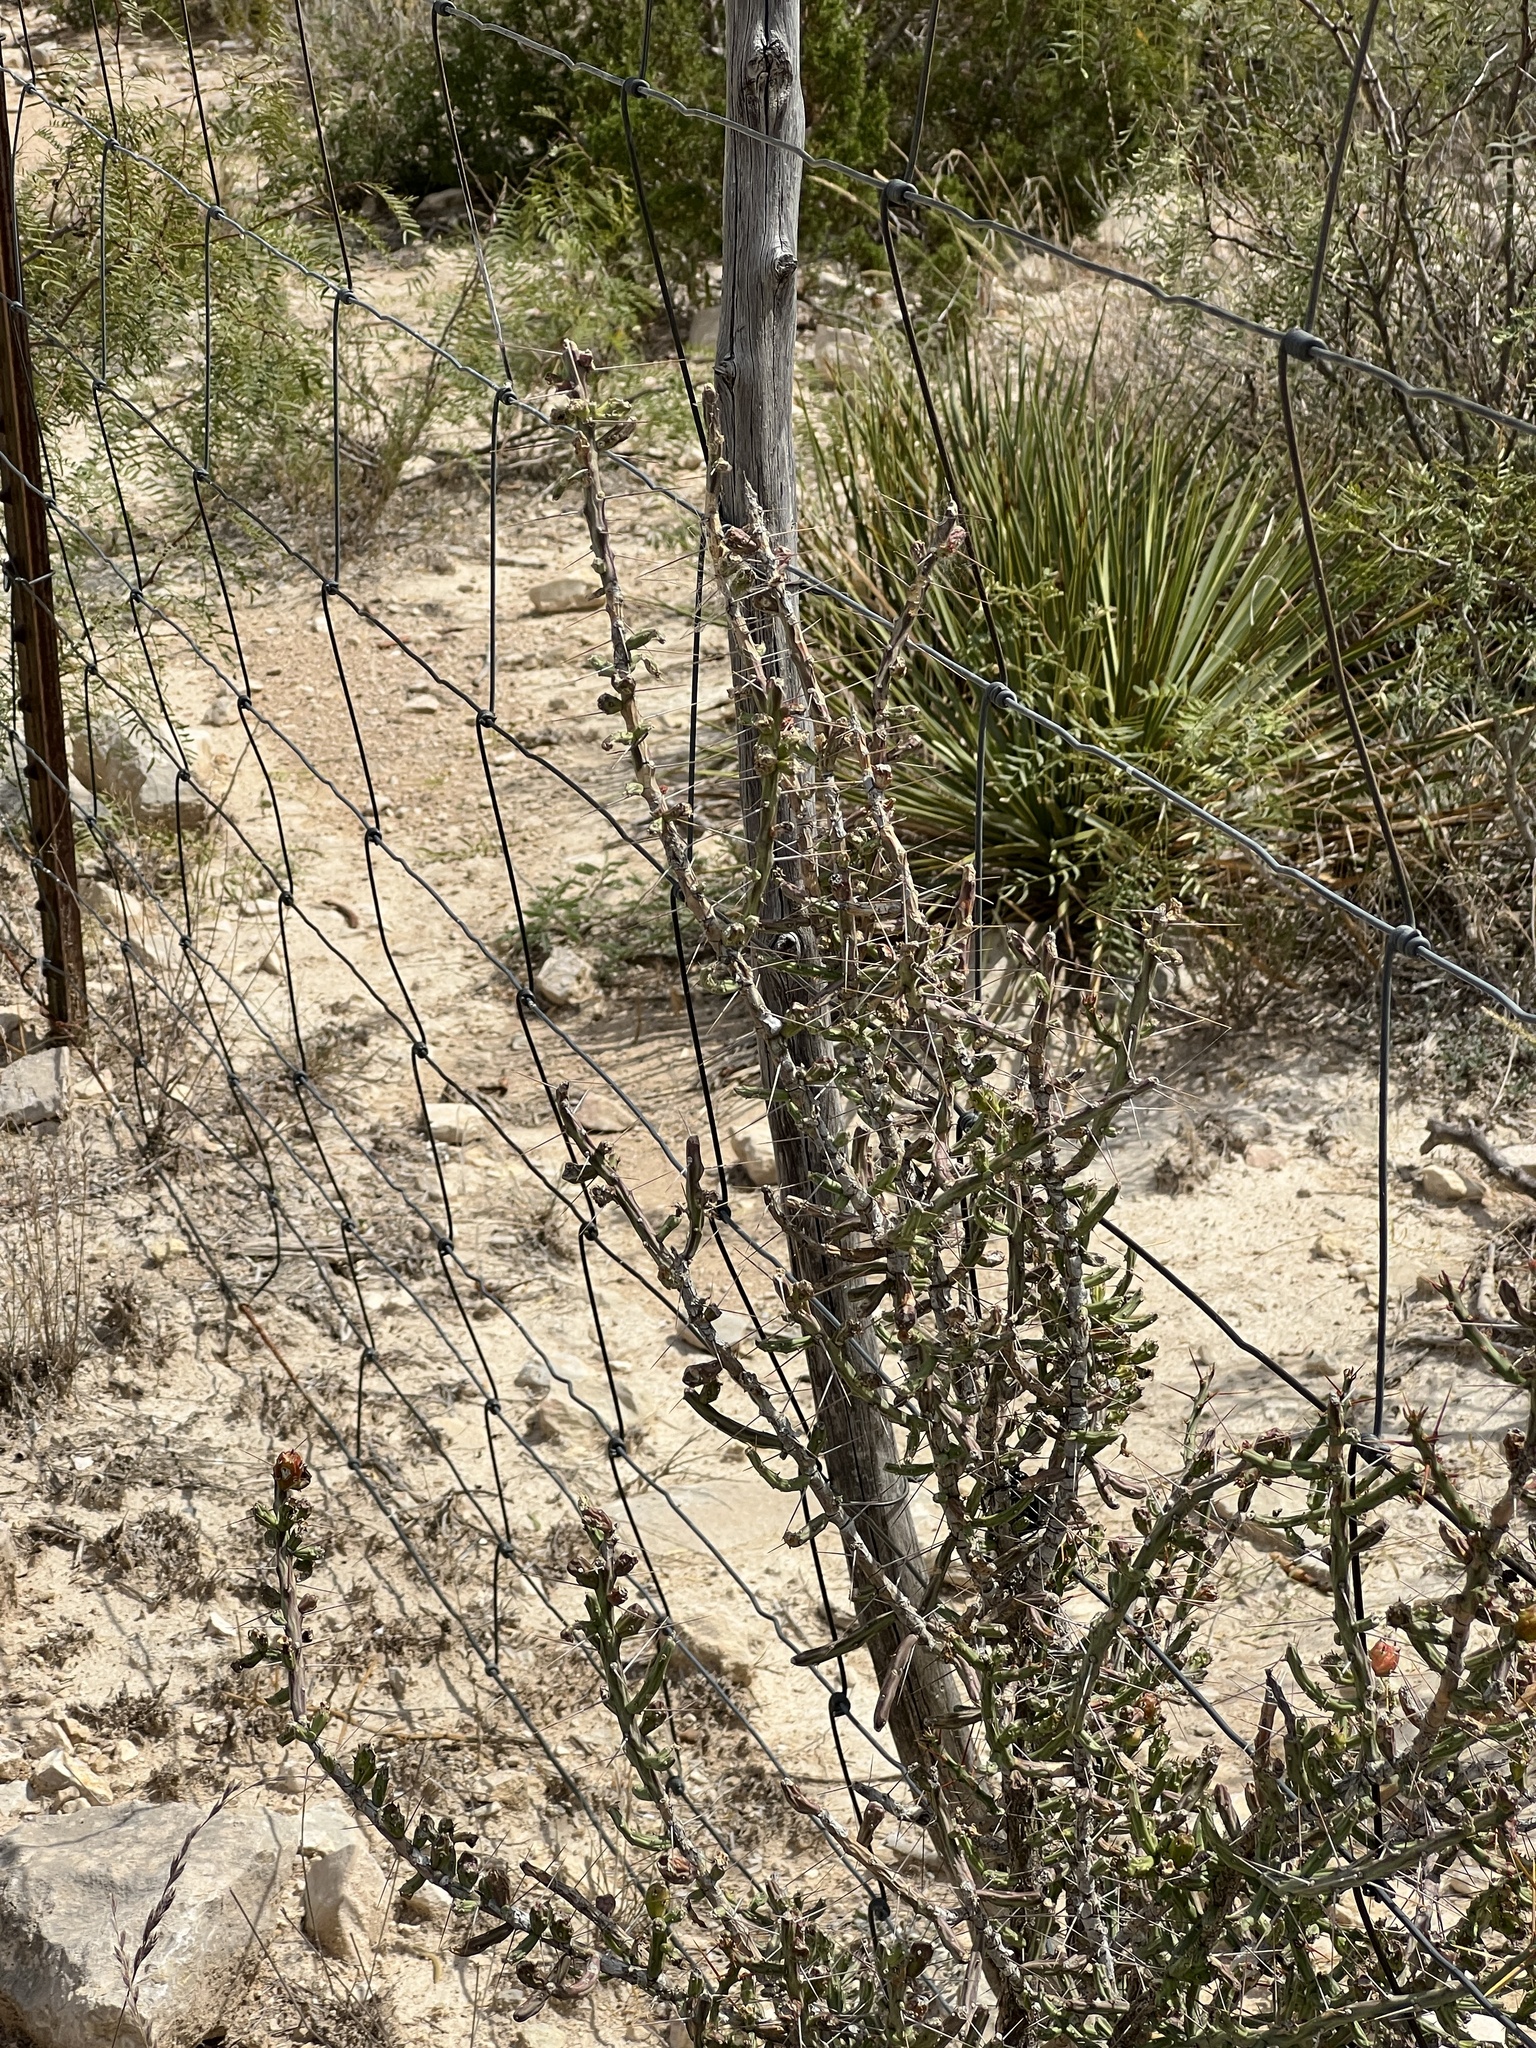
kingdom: Plantae
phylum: Tracheophyta
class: Magnoliopsida
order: Caryophyllales
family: Cactaceae
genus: Cylindropuntia
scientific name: Cylindropuntia leptocaulis
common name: Christmas cactus
